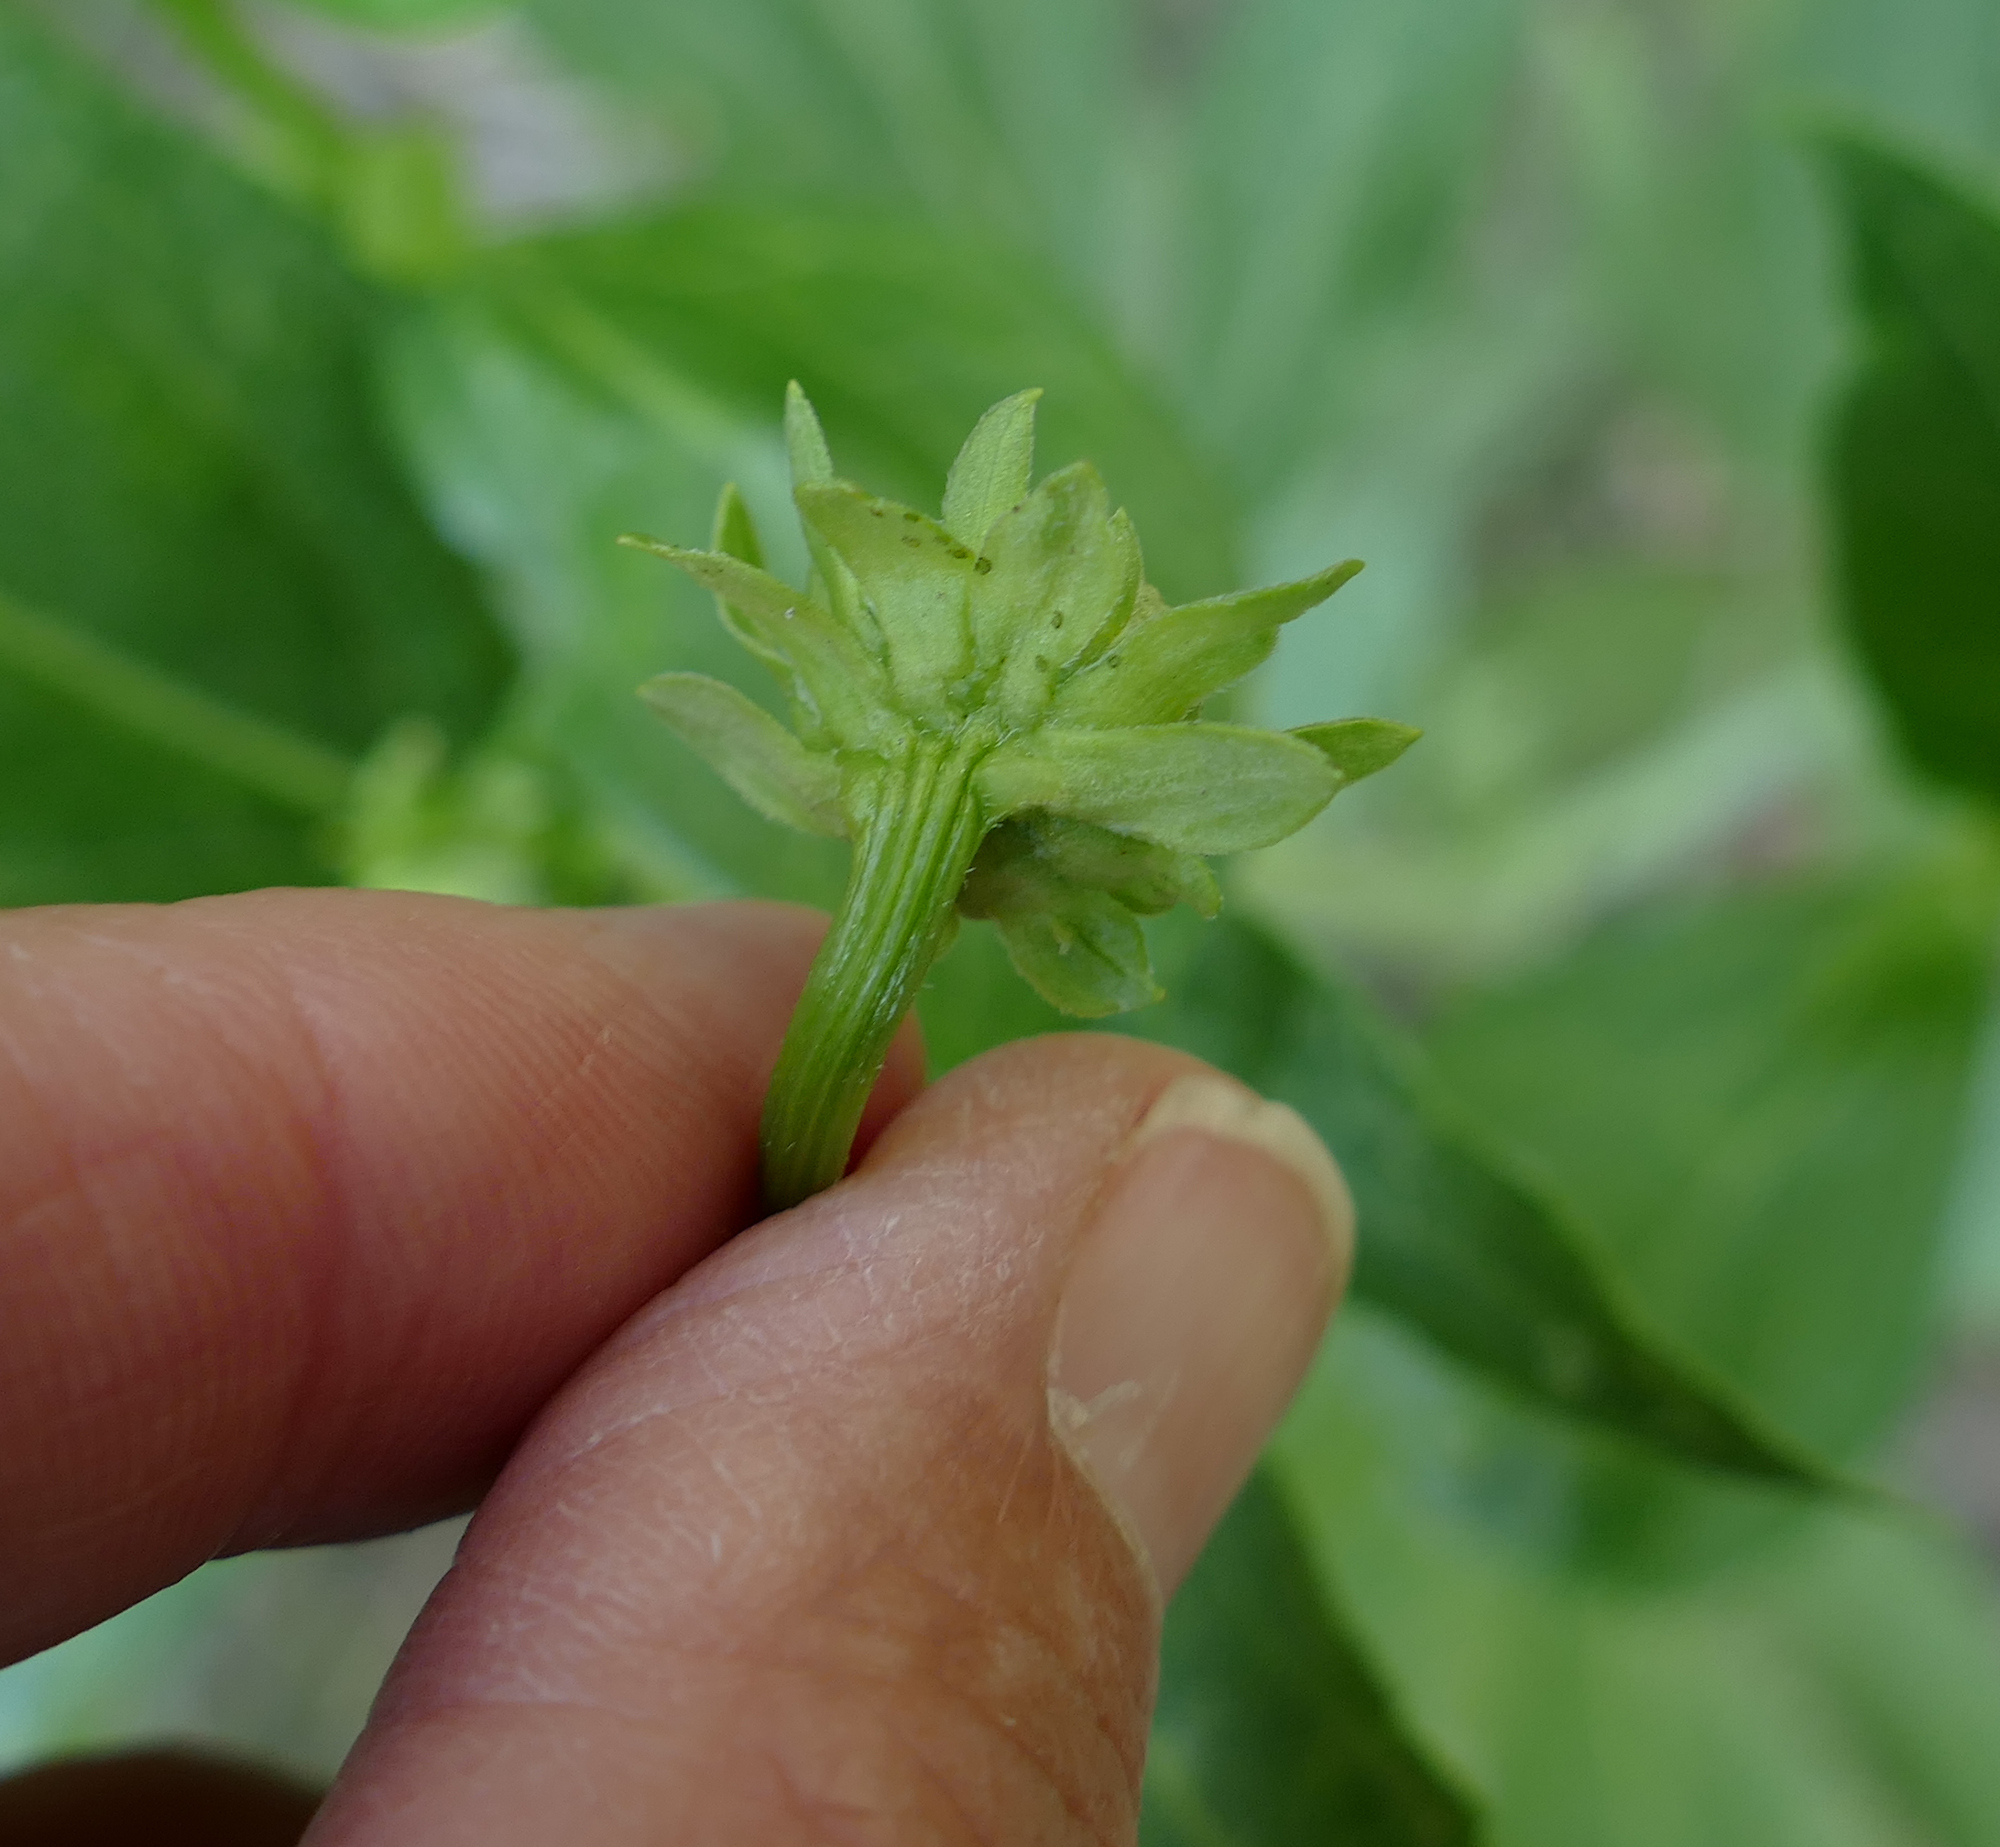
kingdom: Plantae
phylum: Tracheophyta
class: Magnoliopsida
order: Asterales
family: Asteraceae
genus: Rudbeckia
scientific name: Rudbeckia laciniata
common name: Coneflower
